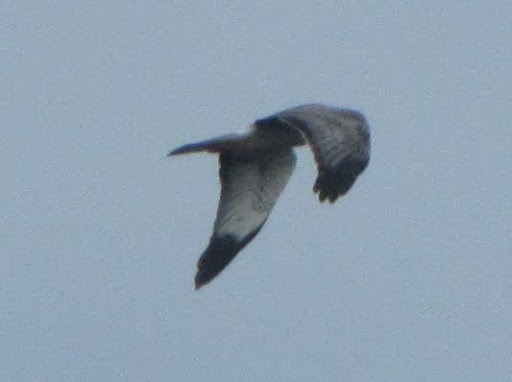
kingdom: Animalia
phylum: Chordata
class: Aves
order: Accipitriformes
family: Accipitridae
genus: Circus
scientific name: Circus cyaneus
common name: Hen harrier
